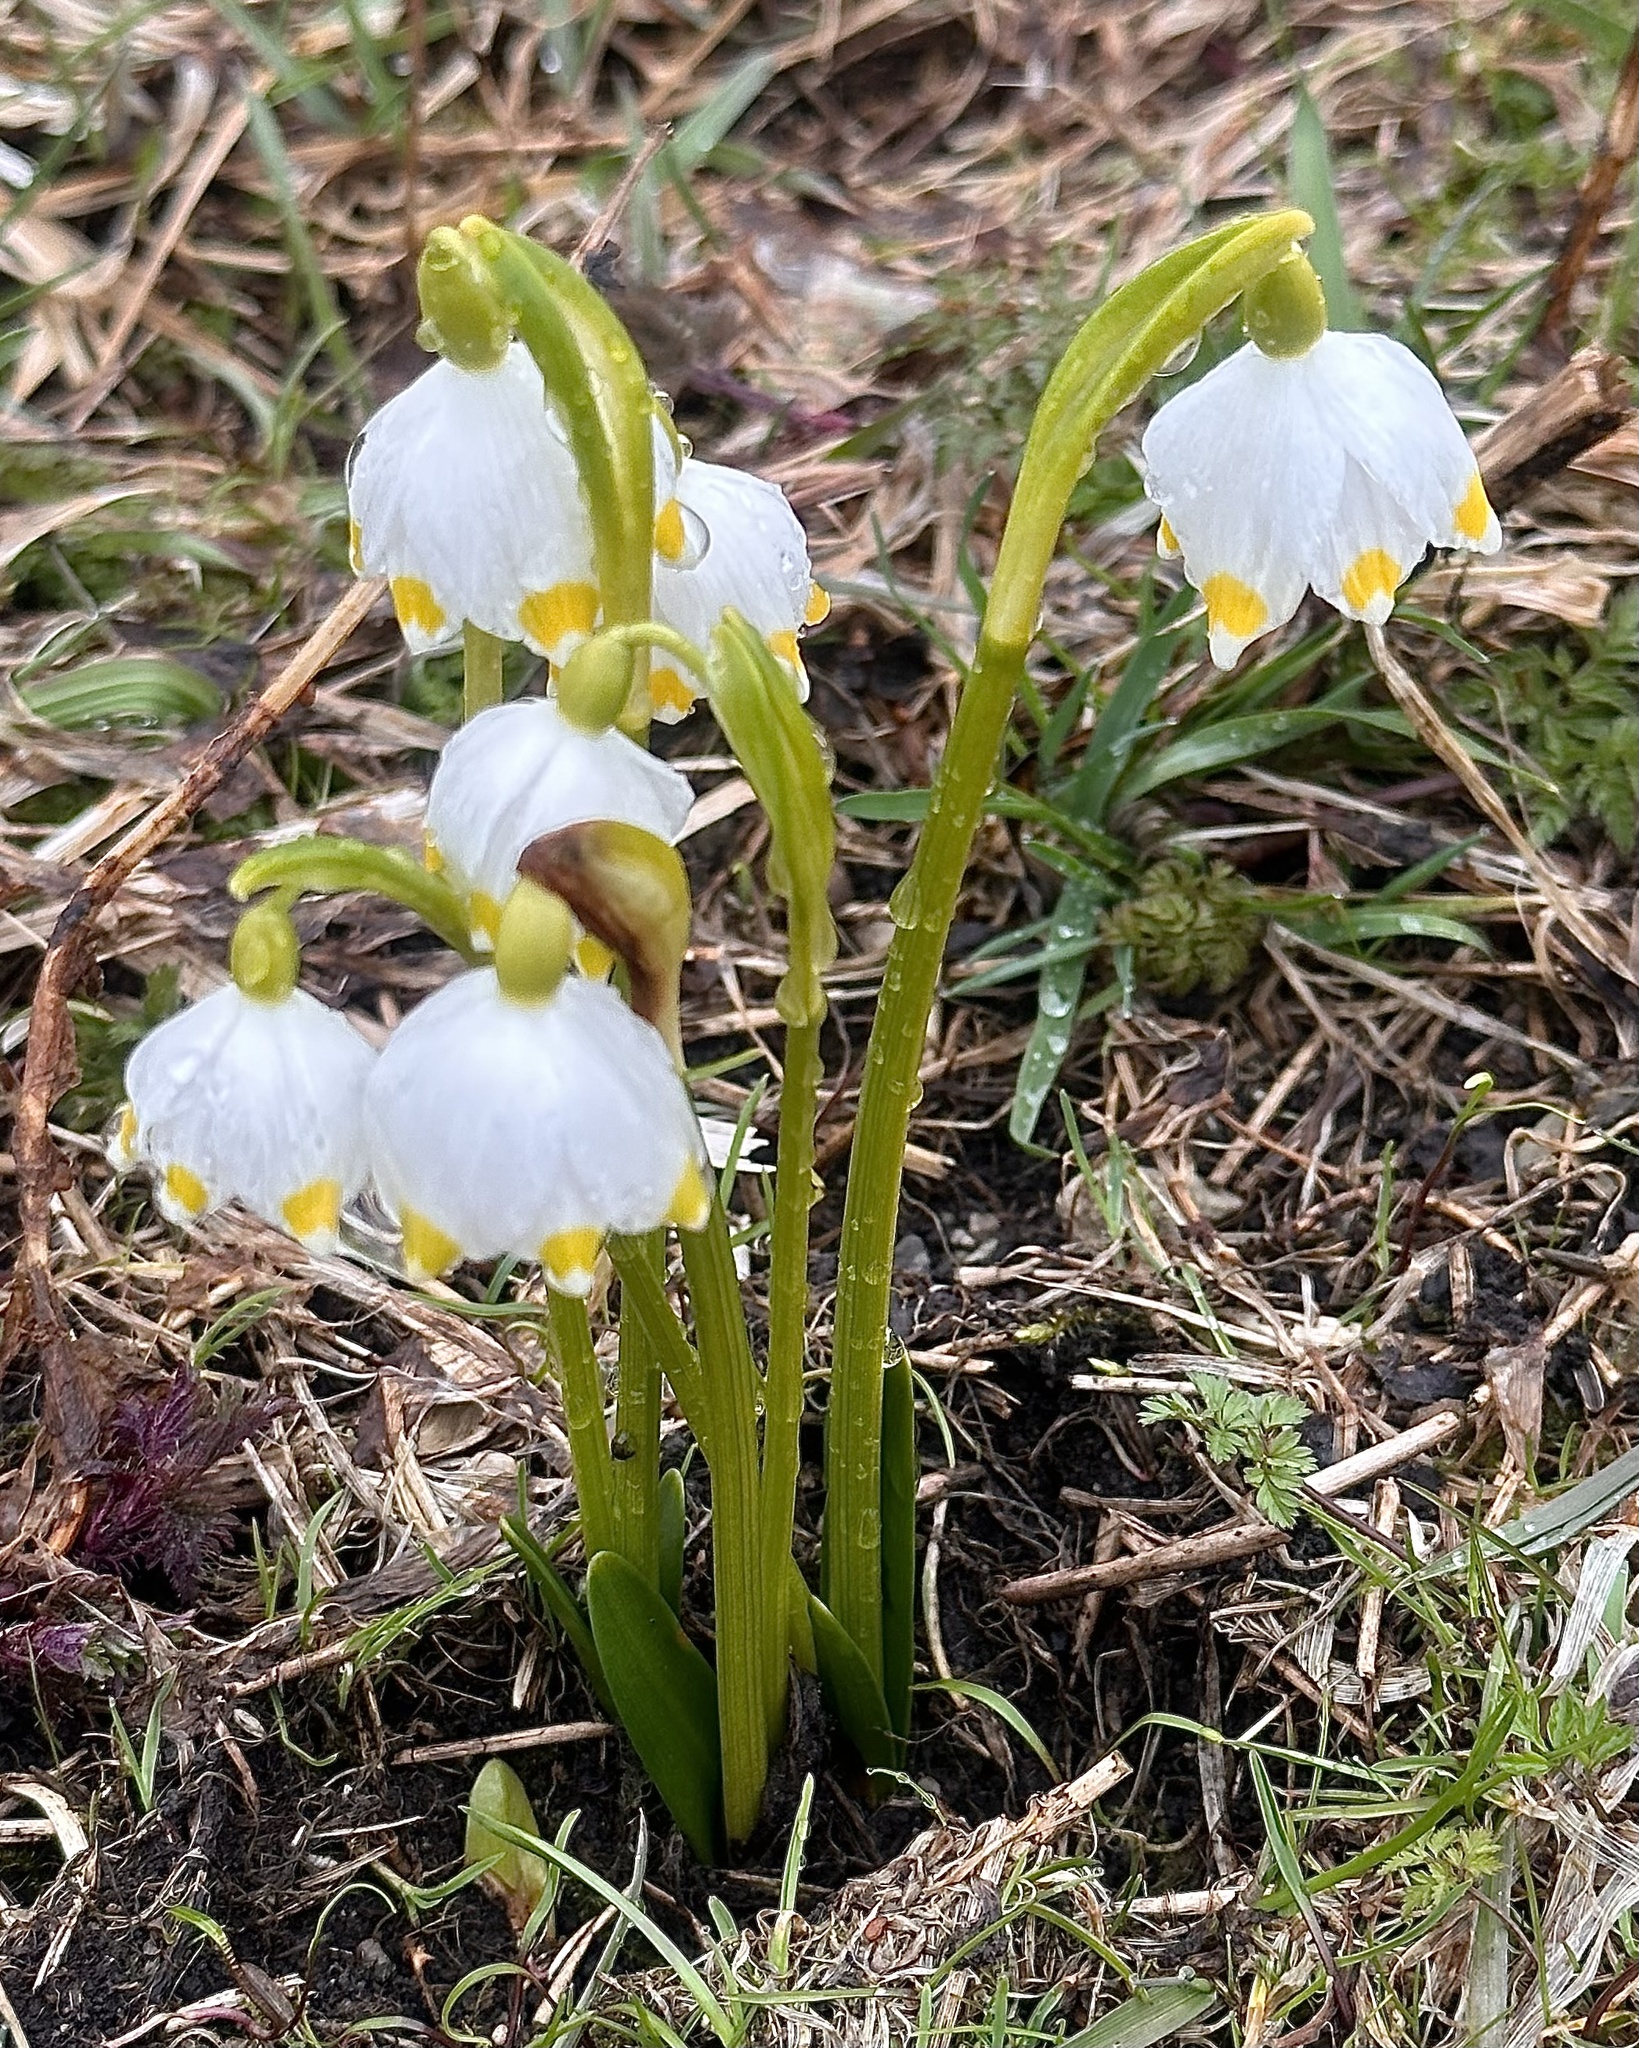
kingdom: Plantae
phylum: Tracheophyta
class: Liliopsida
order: Asparagales
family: Amaryllidaceae
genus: Leucojum
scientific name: Leucojum vernum
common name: Spring snowflake
